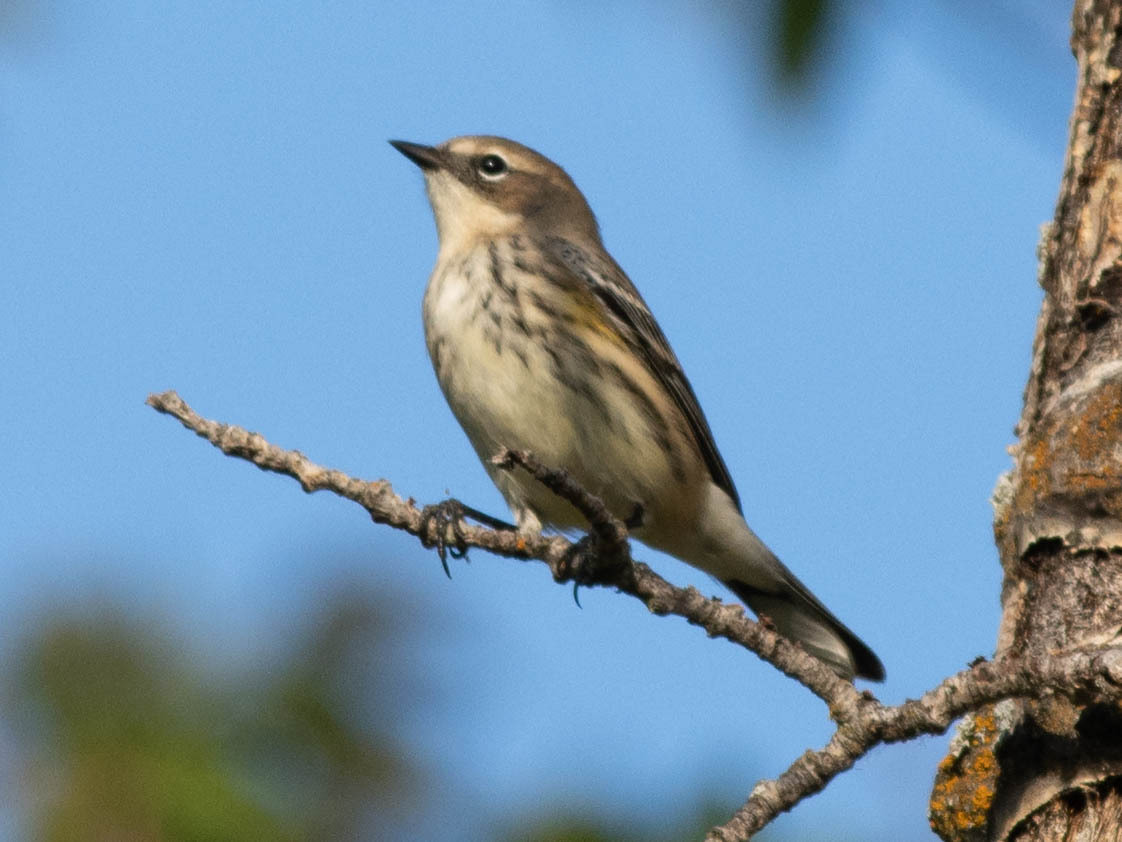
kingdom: Animalia
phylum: Chordata
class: Aves
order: Passeriformes
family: Parulidae
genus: Setophaga
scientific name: Setophaga coronata
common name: Myrtle warbler
